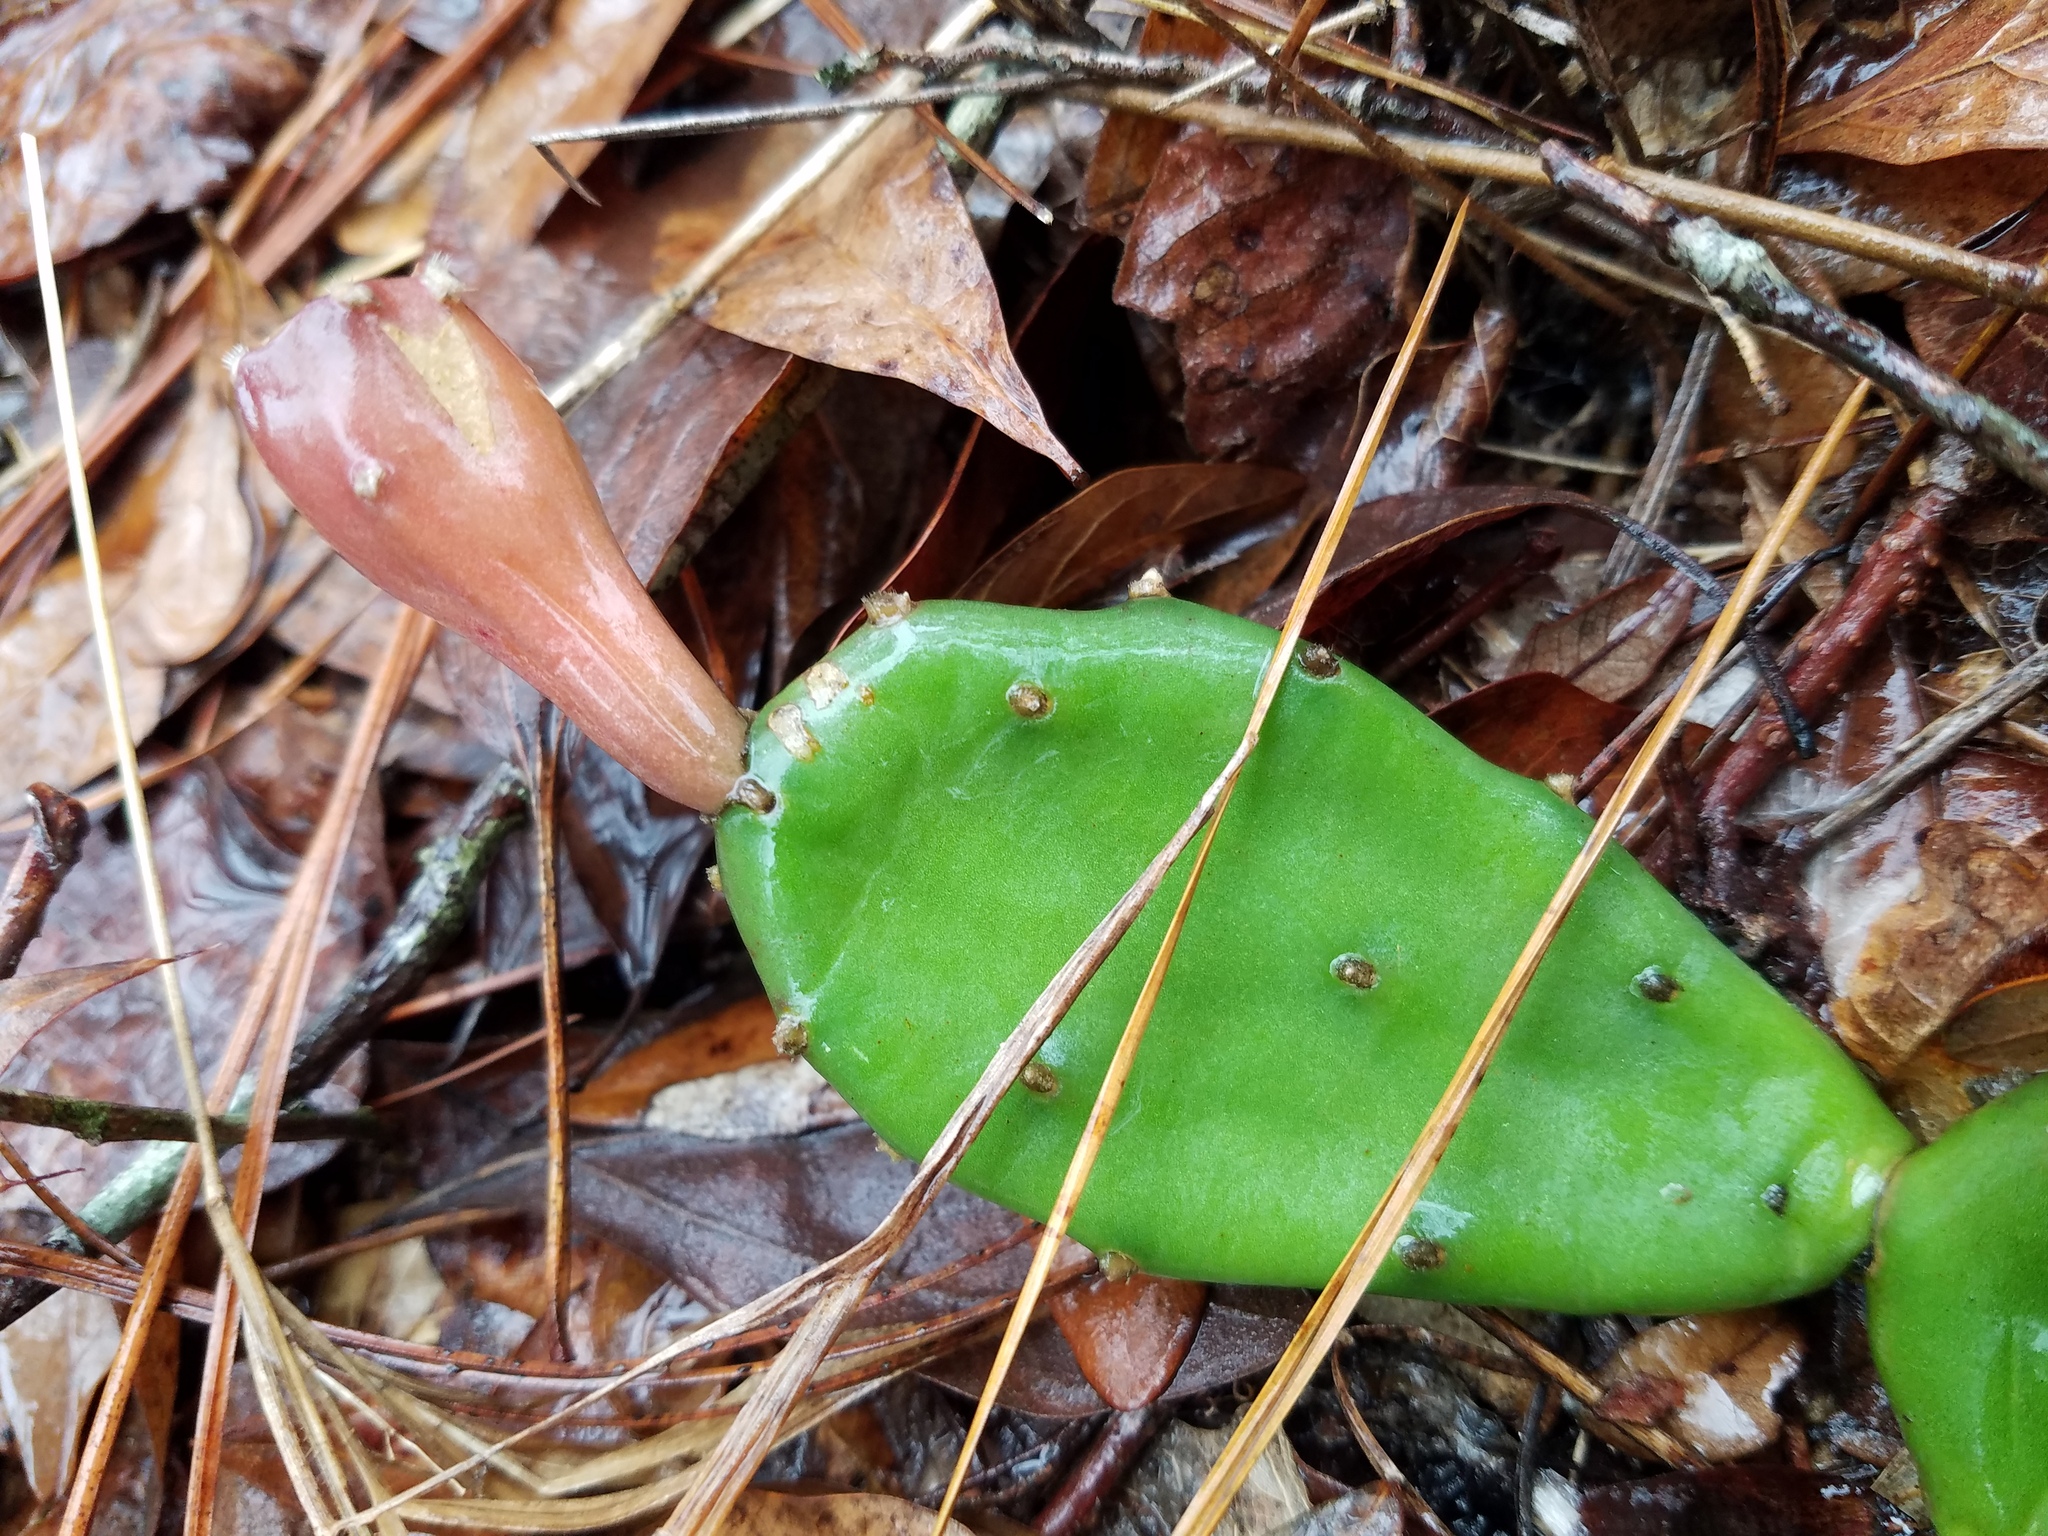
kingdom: Plantae
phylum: Tracheophyta
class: Magnoliopsida
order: Caryophyllales
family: Cactaceae
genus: Opuntia
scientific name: Opuntia mesacantha
